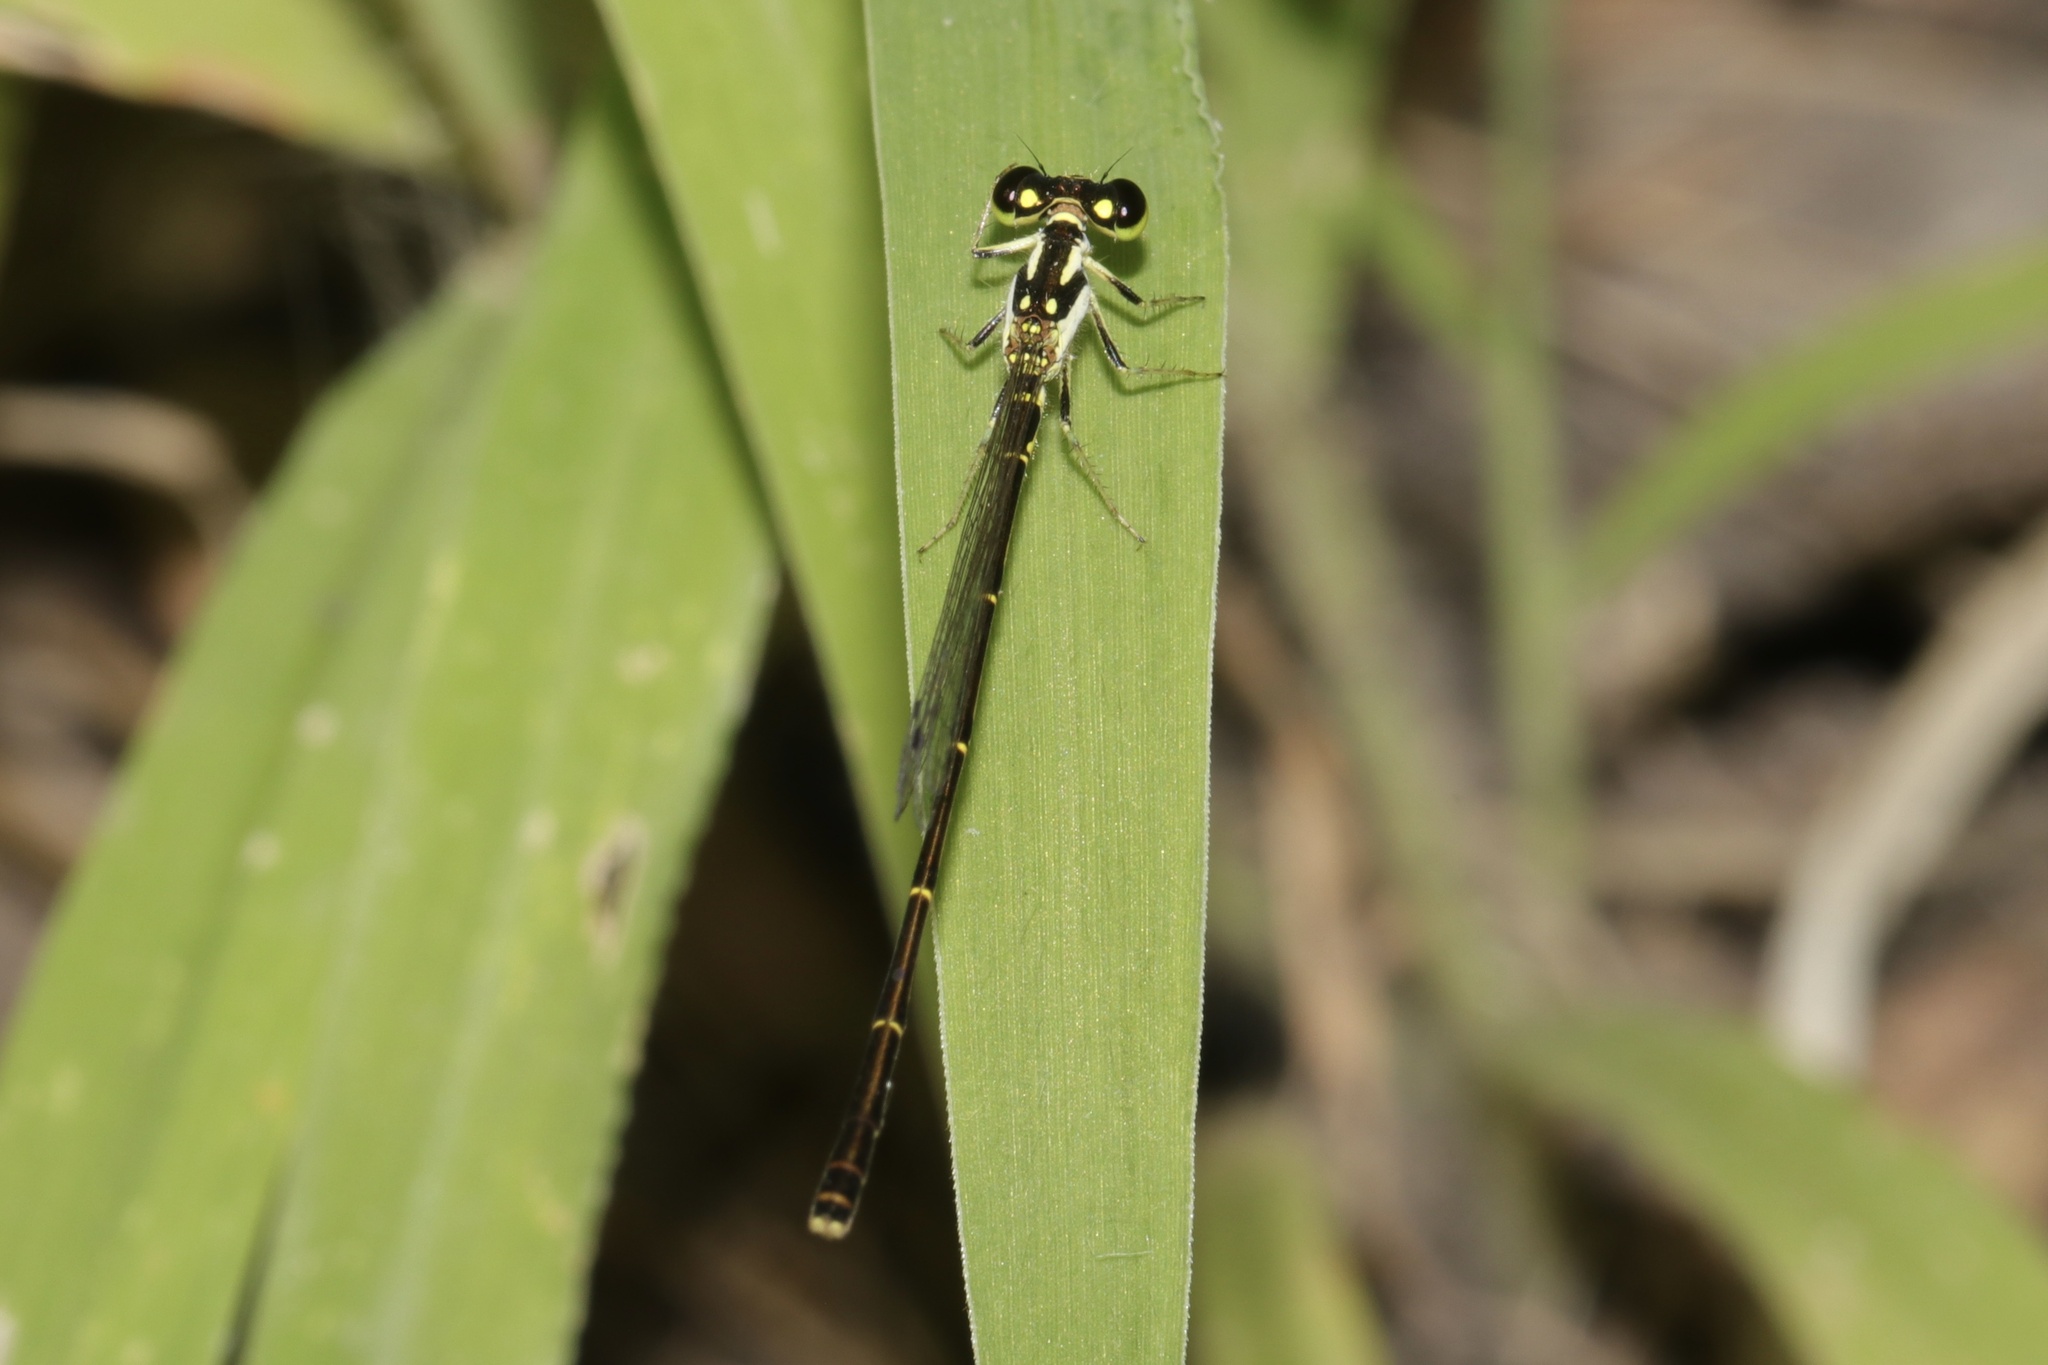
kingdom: Animalia
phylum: Arthropoda
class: Insecta
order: Odonata
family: Coenagrionidae
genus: Ischnura
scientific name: Ischnura posita
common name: Fragile forktail
